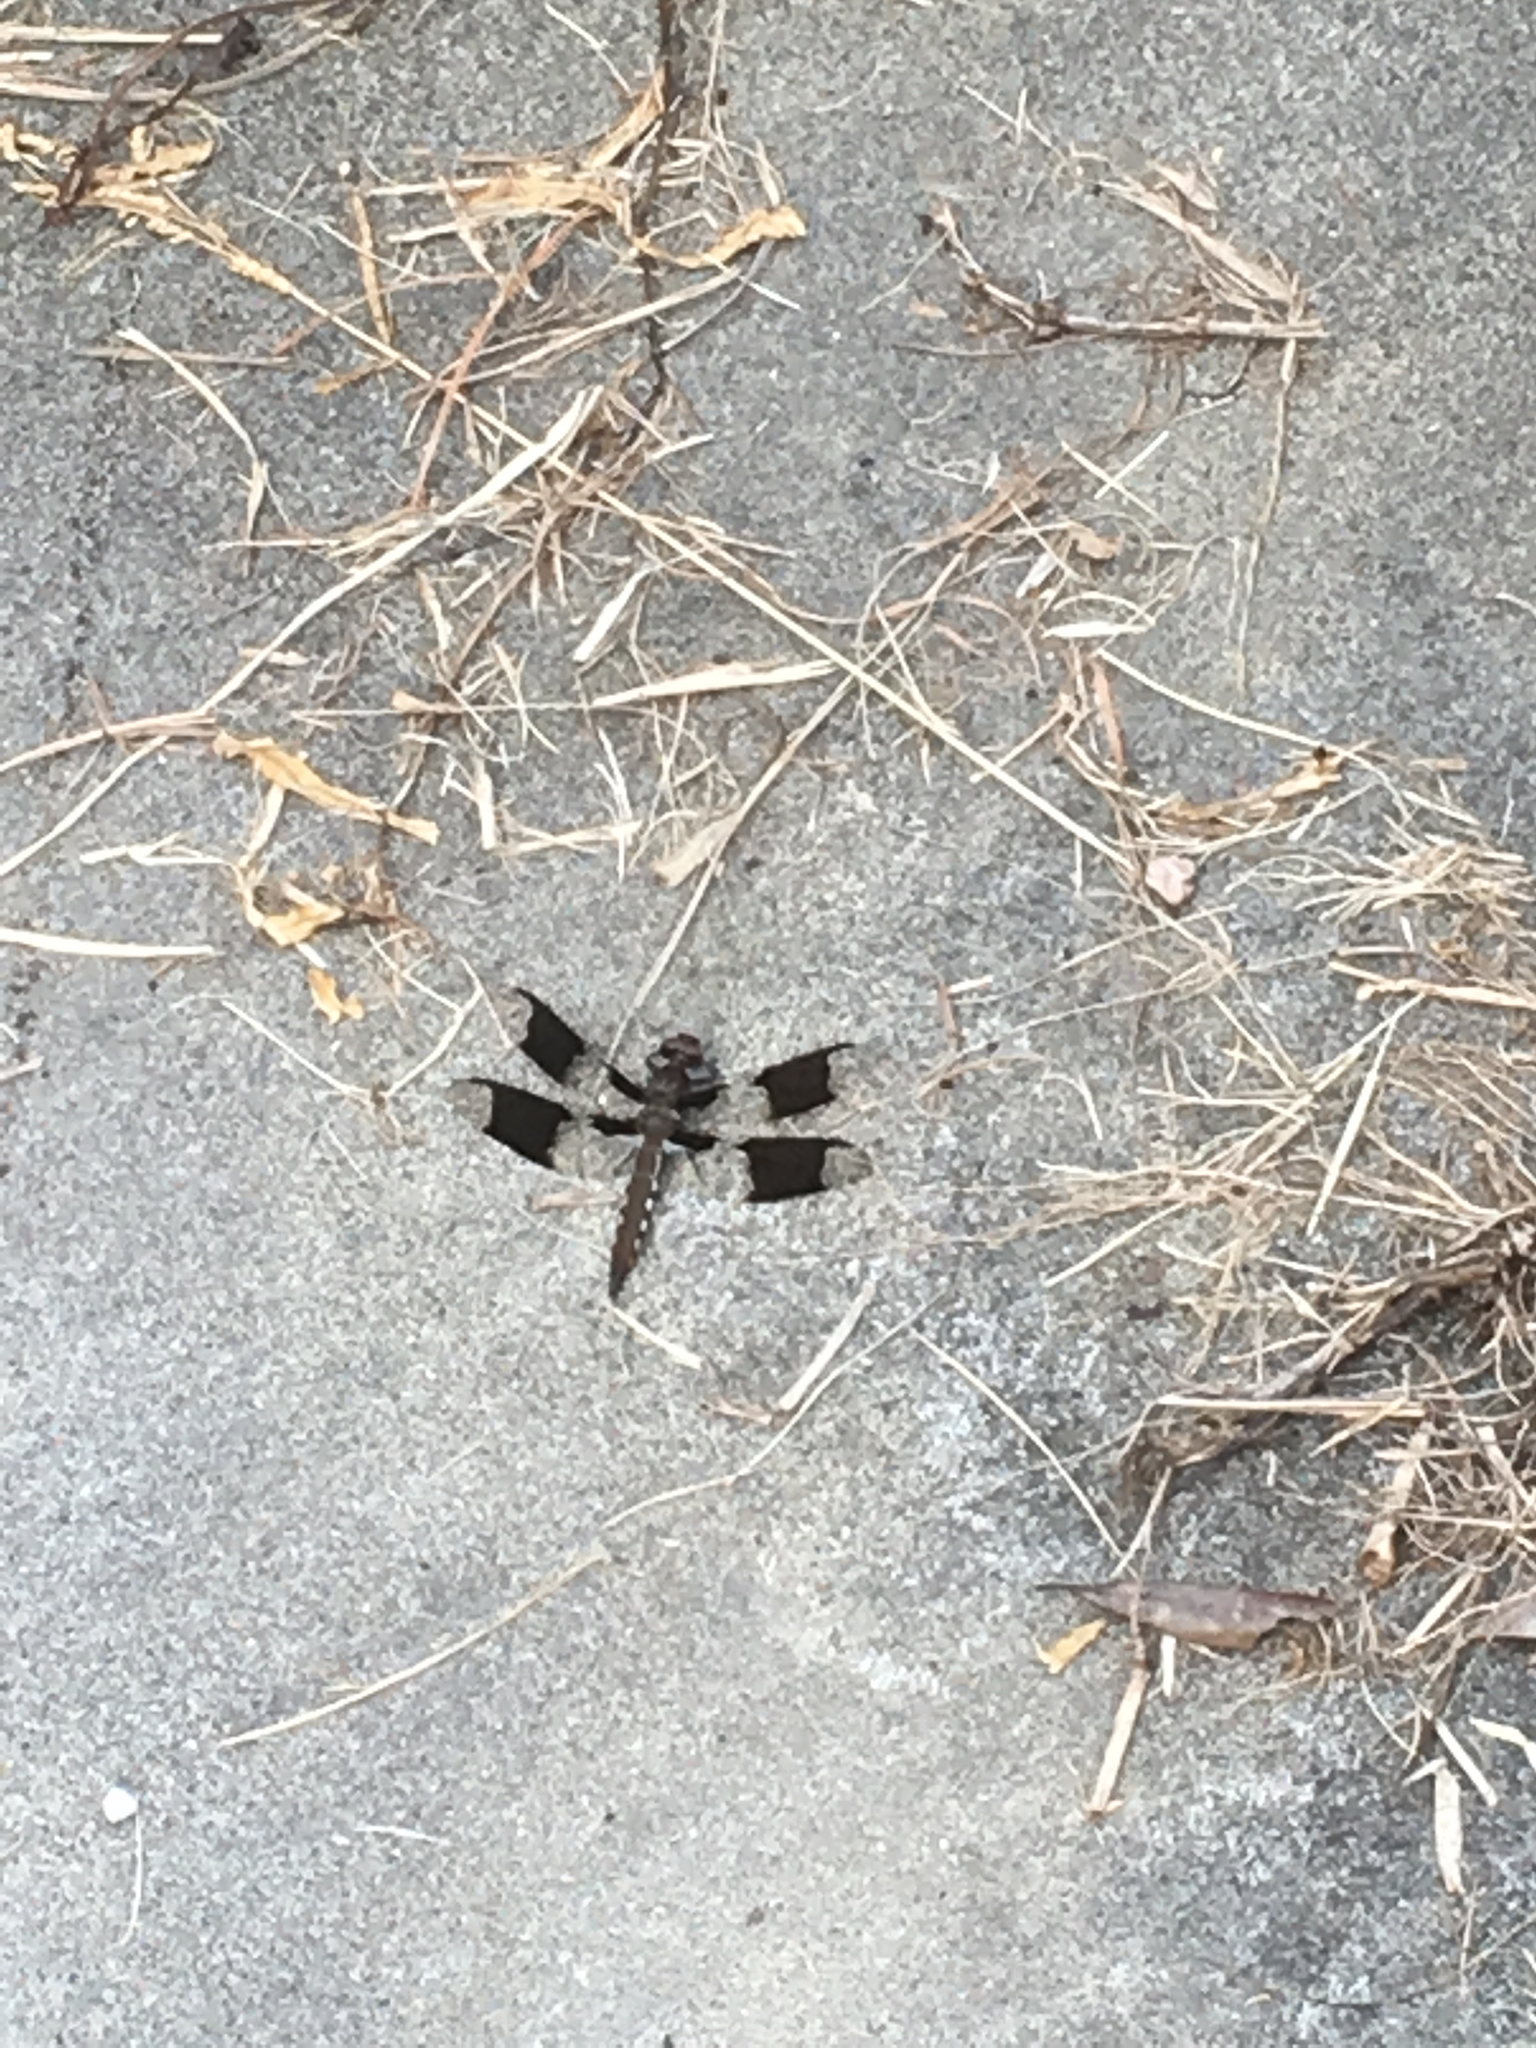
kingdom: Animalia
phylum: Arthropoda
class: Insecta
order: Odonata
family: Libellulidae
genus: Plathemis
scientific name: Plathemis lydia
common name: Common whitetail
